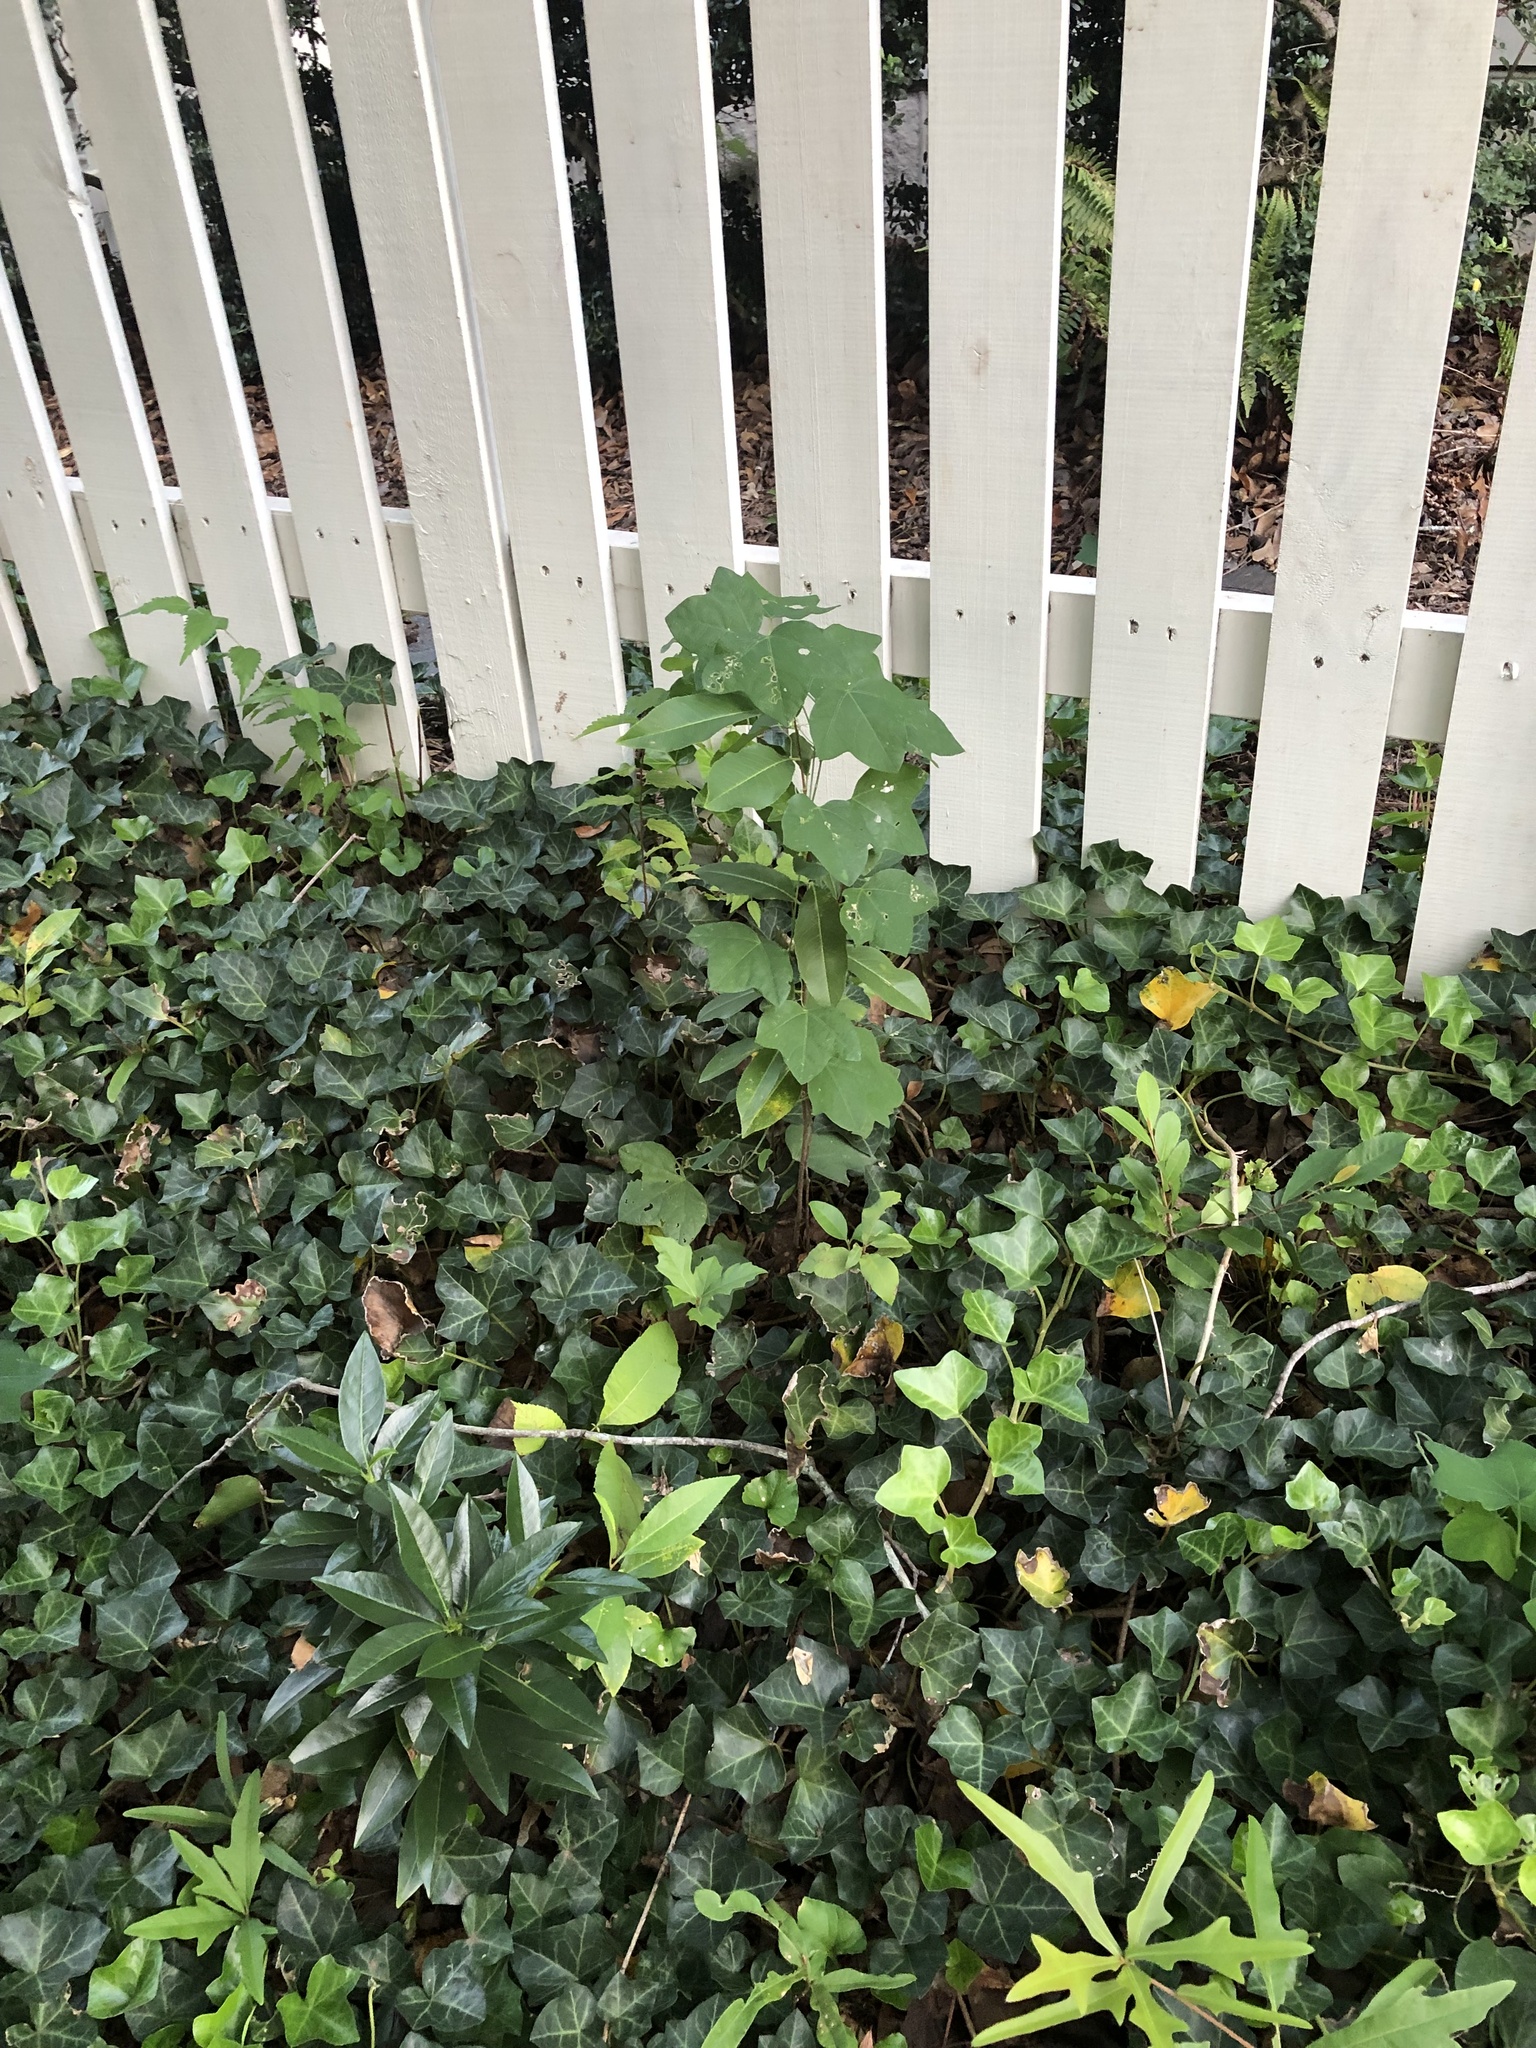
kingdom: Plantae
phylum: Tracheophyta
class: Magnoliopsida
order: Malpighiales
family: Passifloraceae
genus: Passiflora
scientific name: Passiflora lutea
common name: Yellow passionflower
